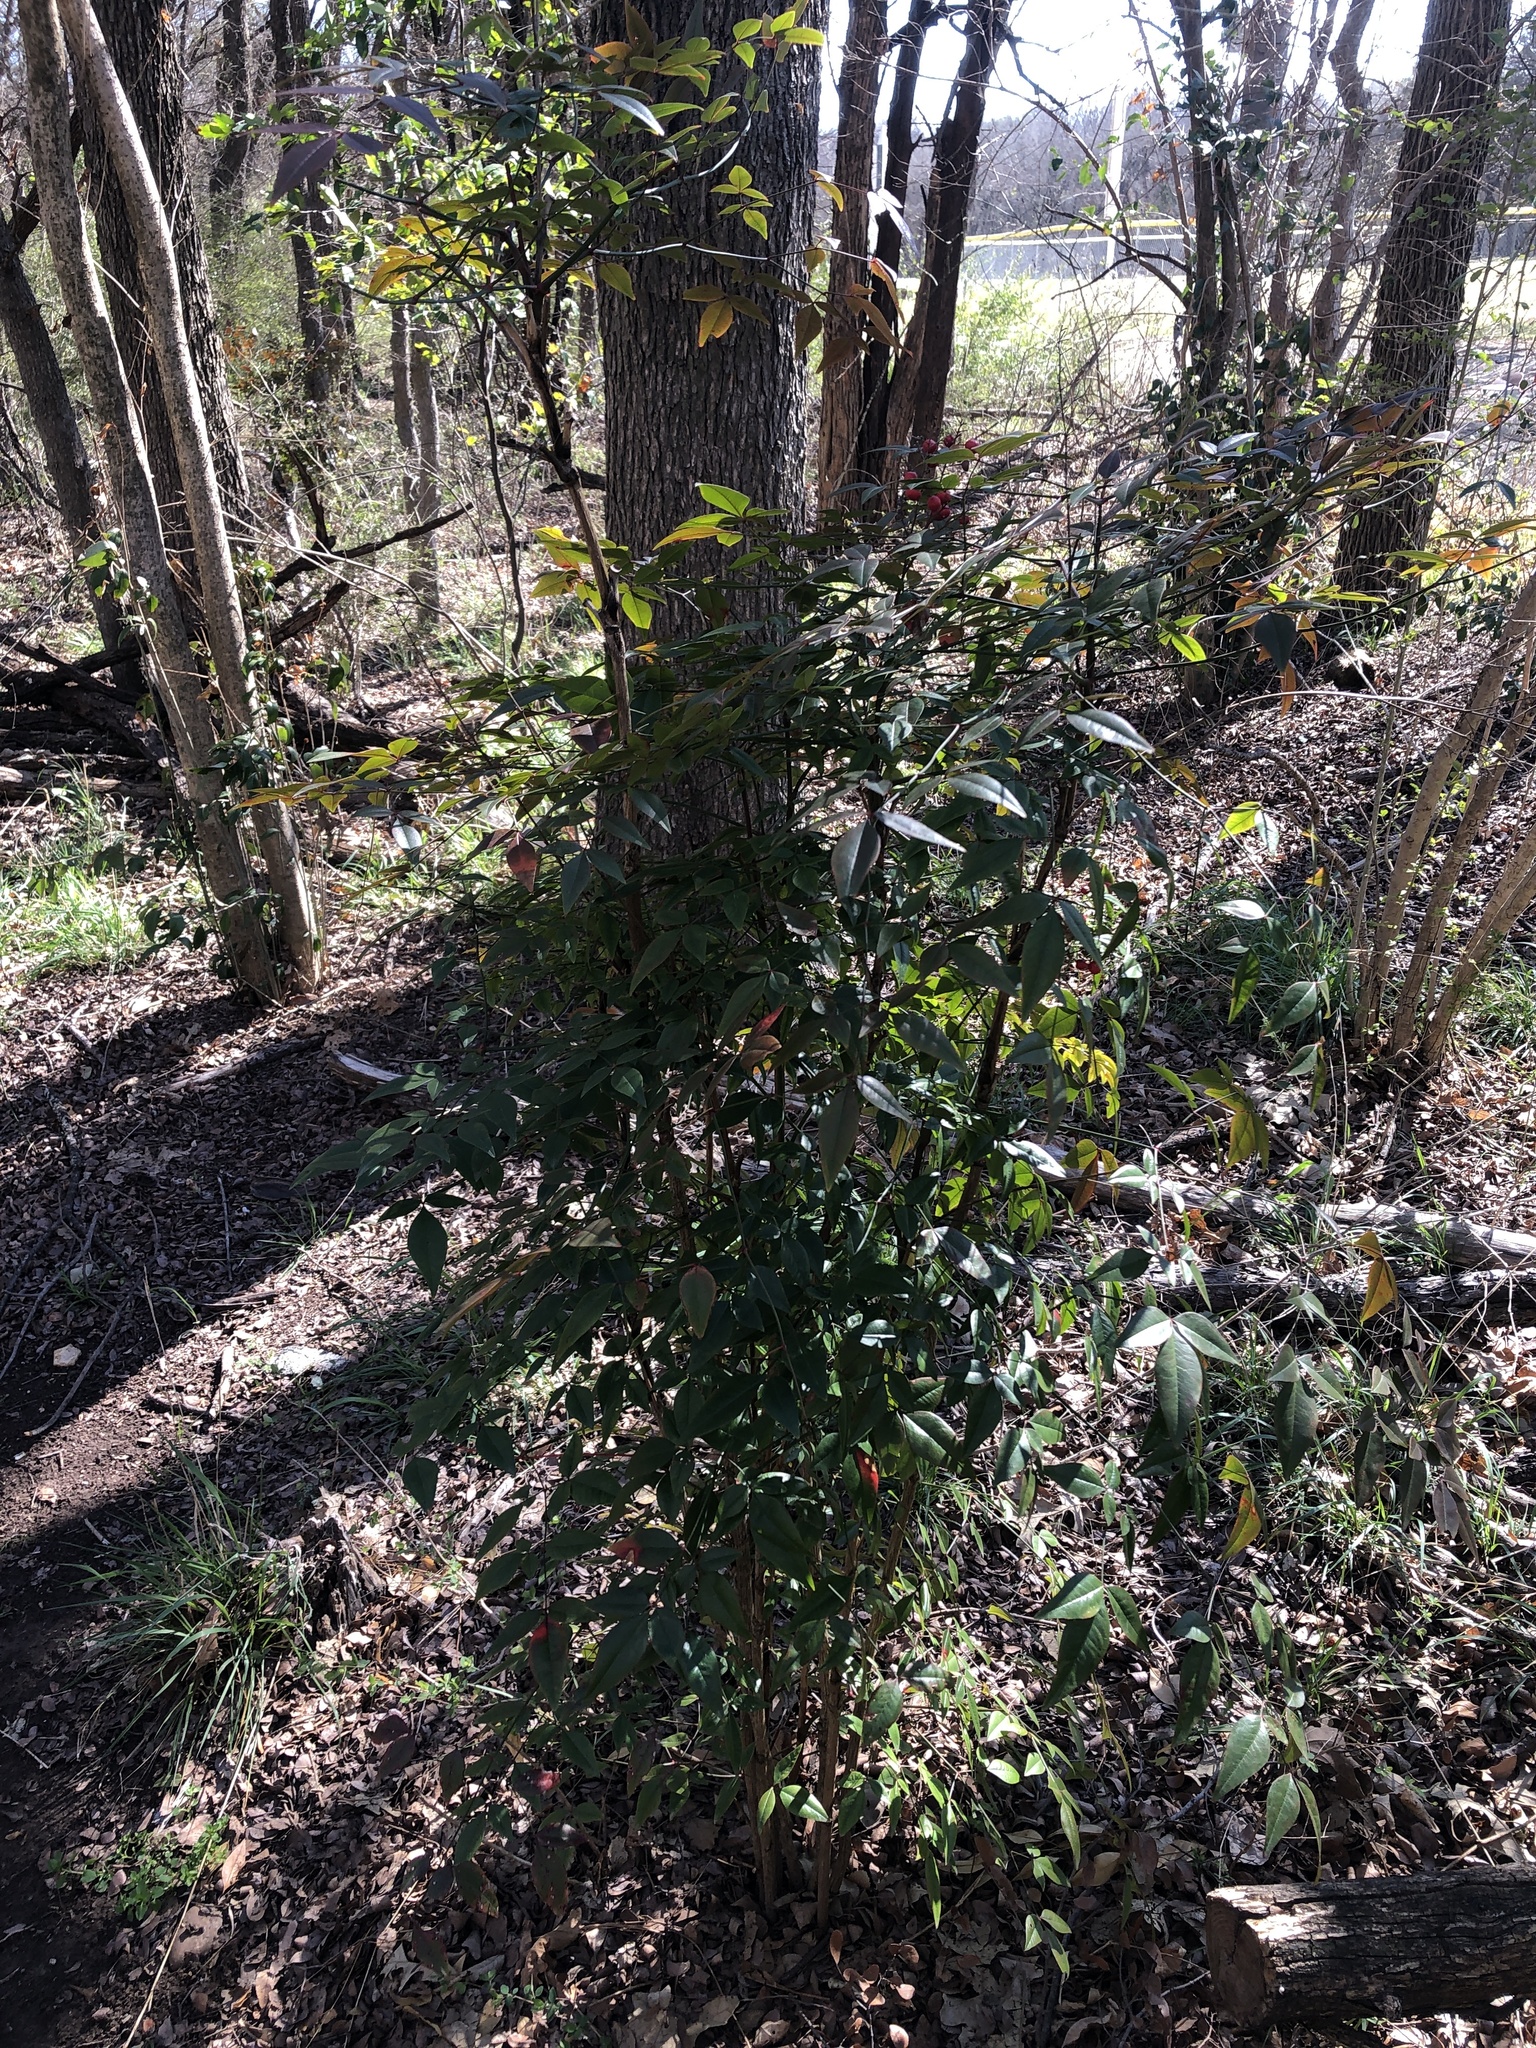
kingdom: Plantae
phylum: Tracheophyta
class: Magnoliopsida
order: Ranunculales
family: Berberidaceae
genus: Nandina
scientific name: Nandina domestica
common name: Sacred bamboo
